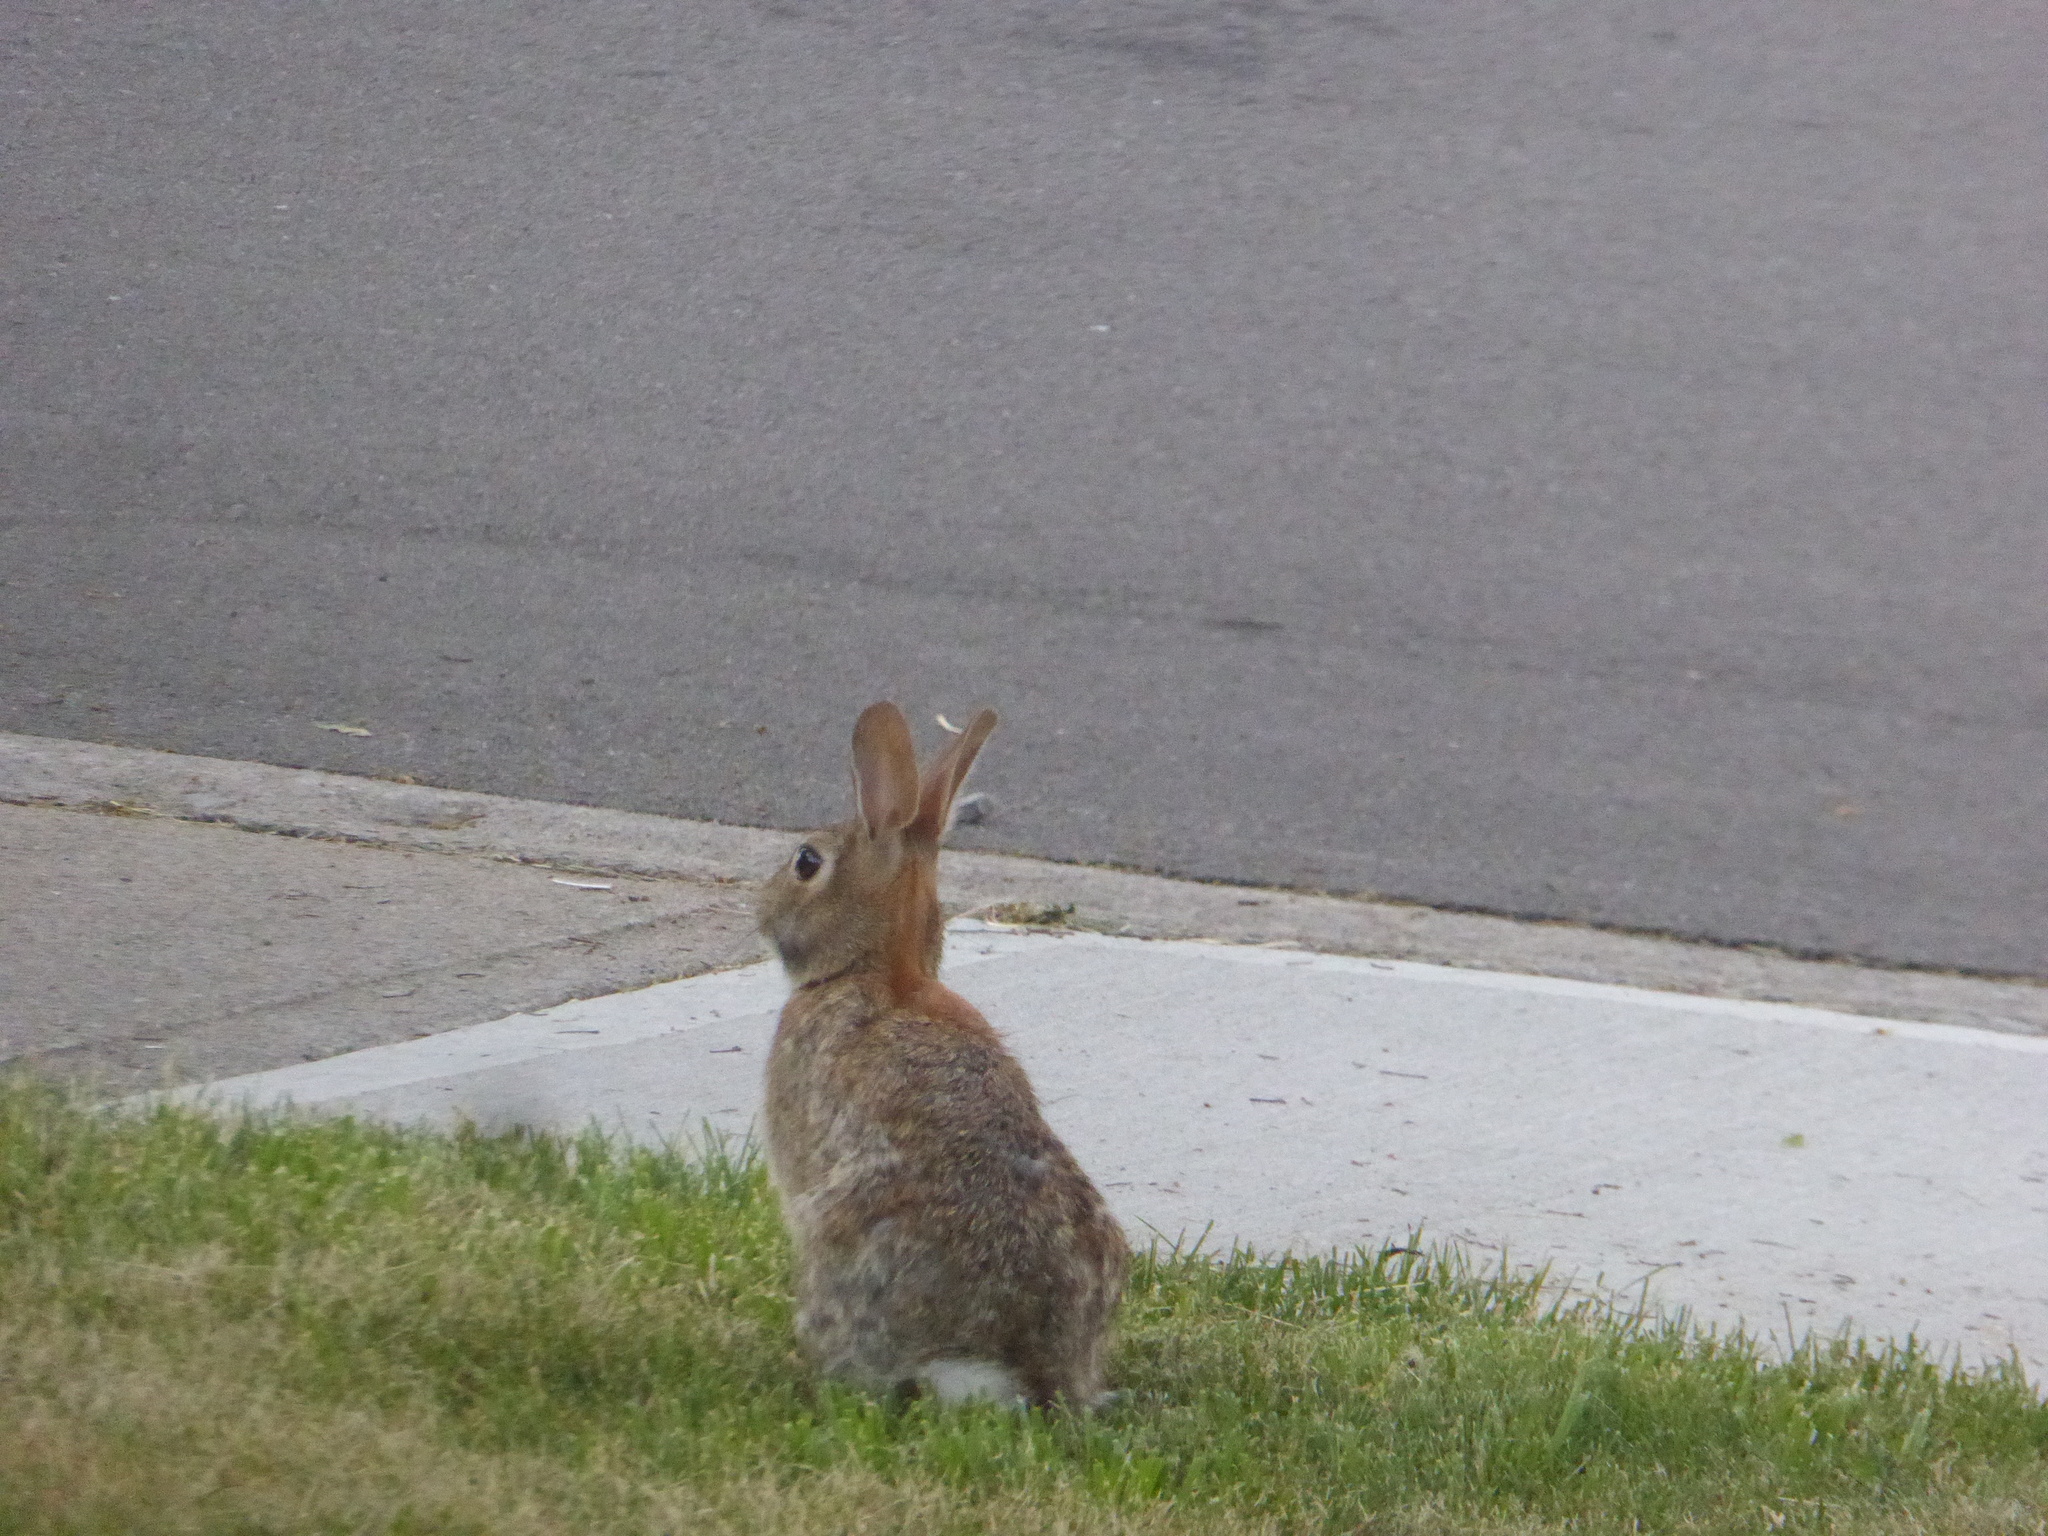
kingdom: Animalia
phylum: Chordata
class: Mammalia
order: Lagomorpha
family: Leporidae
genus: Sylvilagus
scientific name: Sylvilagus floridanus
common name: Eastern cottontail
